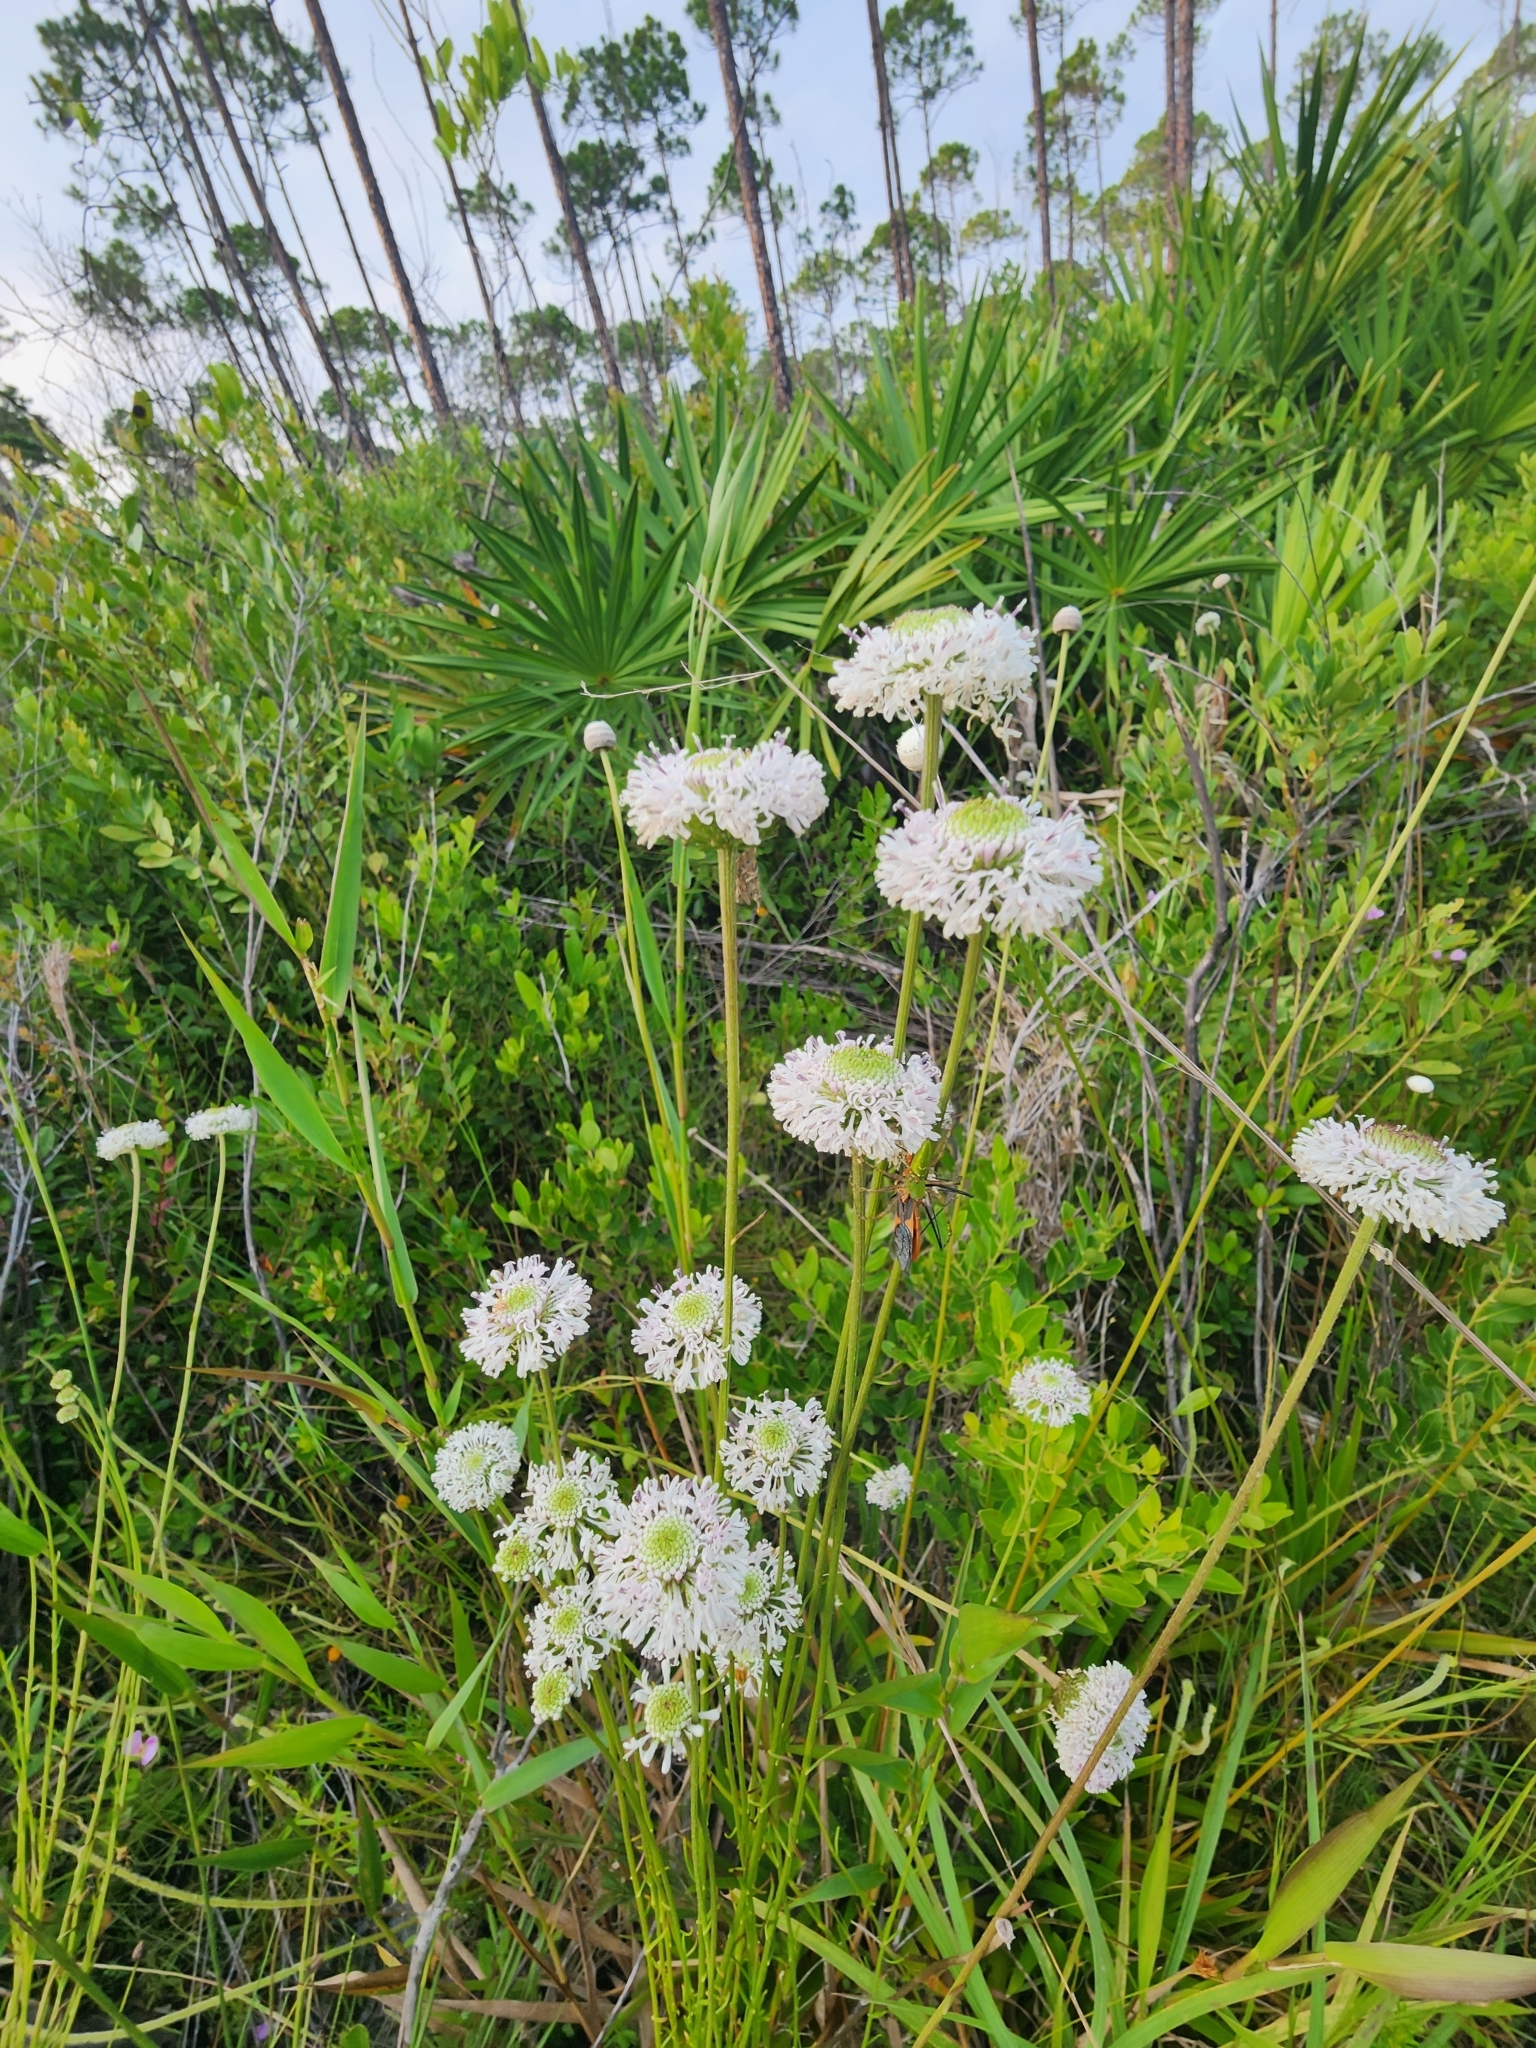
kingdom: Plantae
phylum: Tracheophyta
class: Magnoliopsida
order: Asterales
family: Asteraceae
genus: Marshallia
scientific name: Marshallia graminifolia
